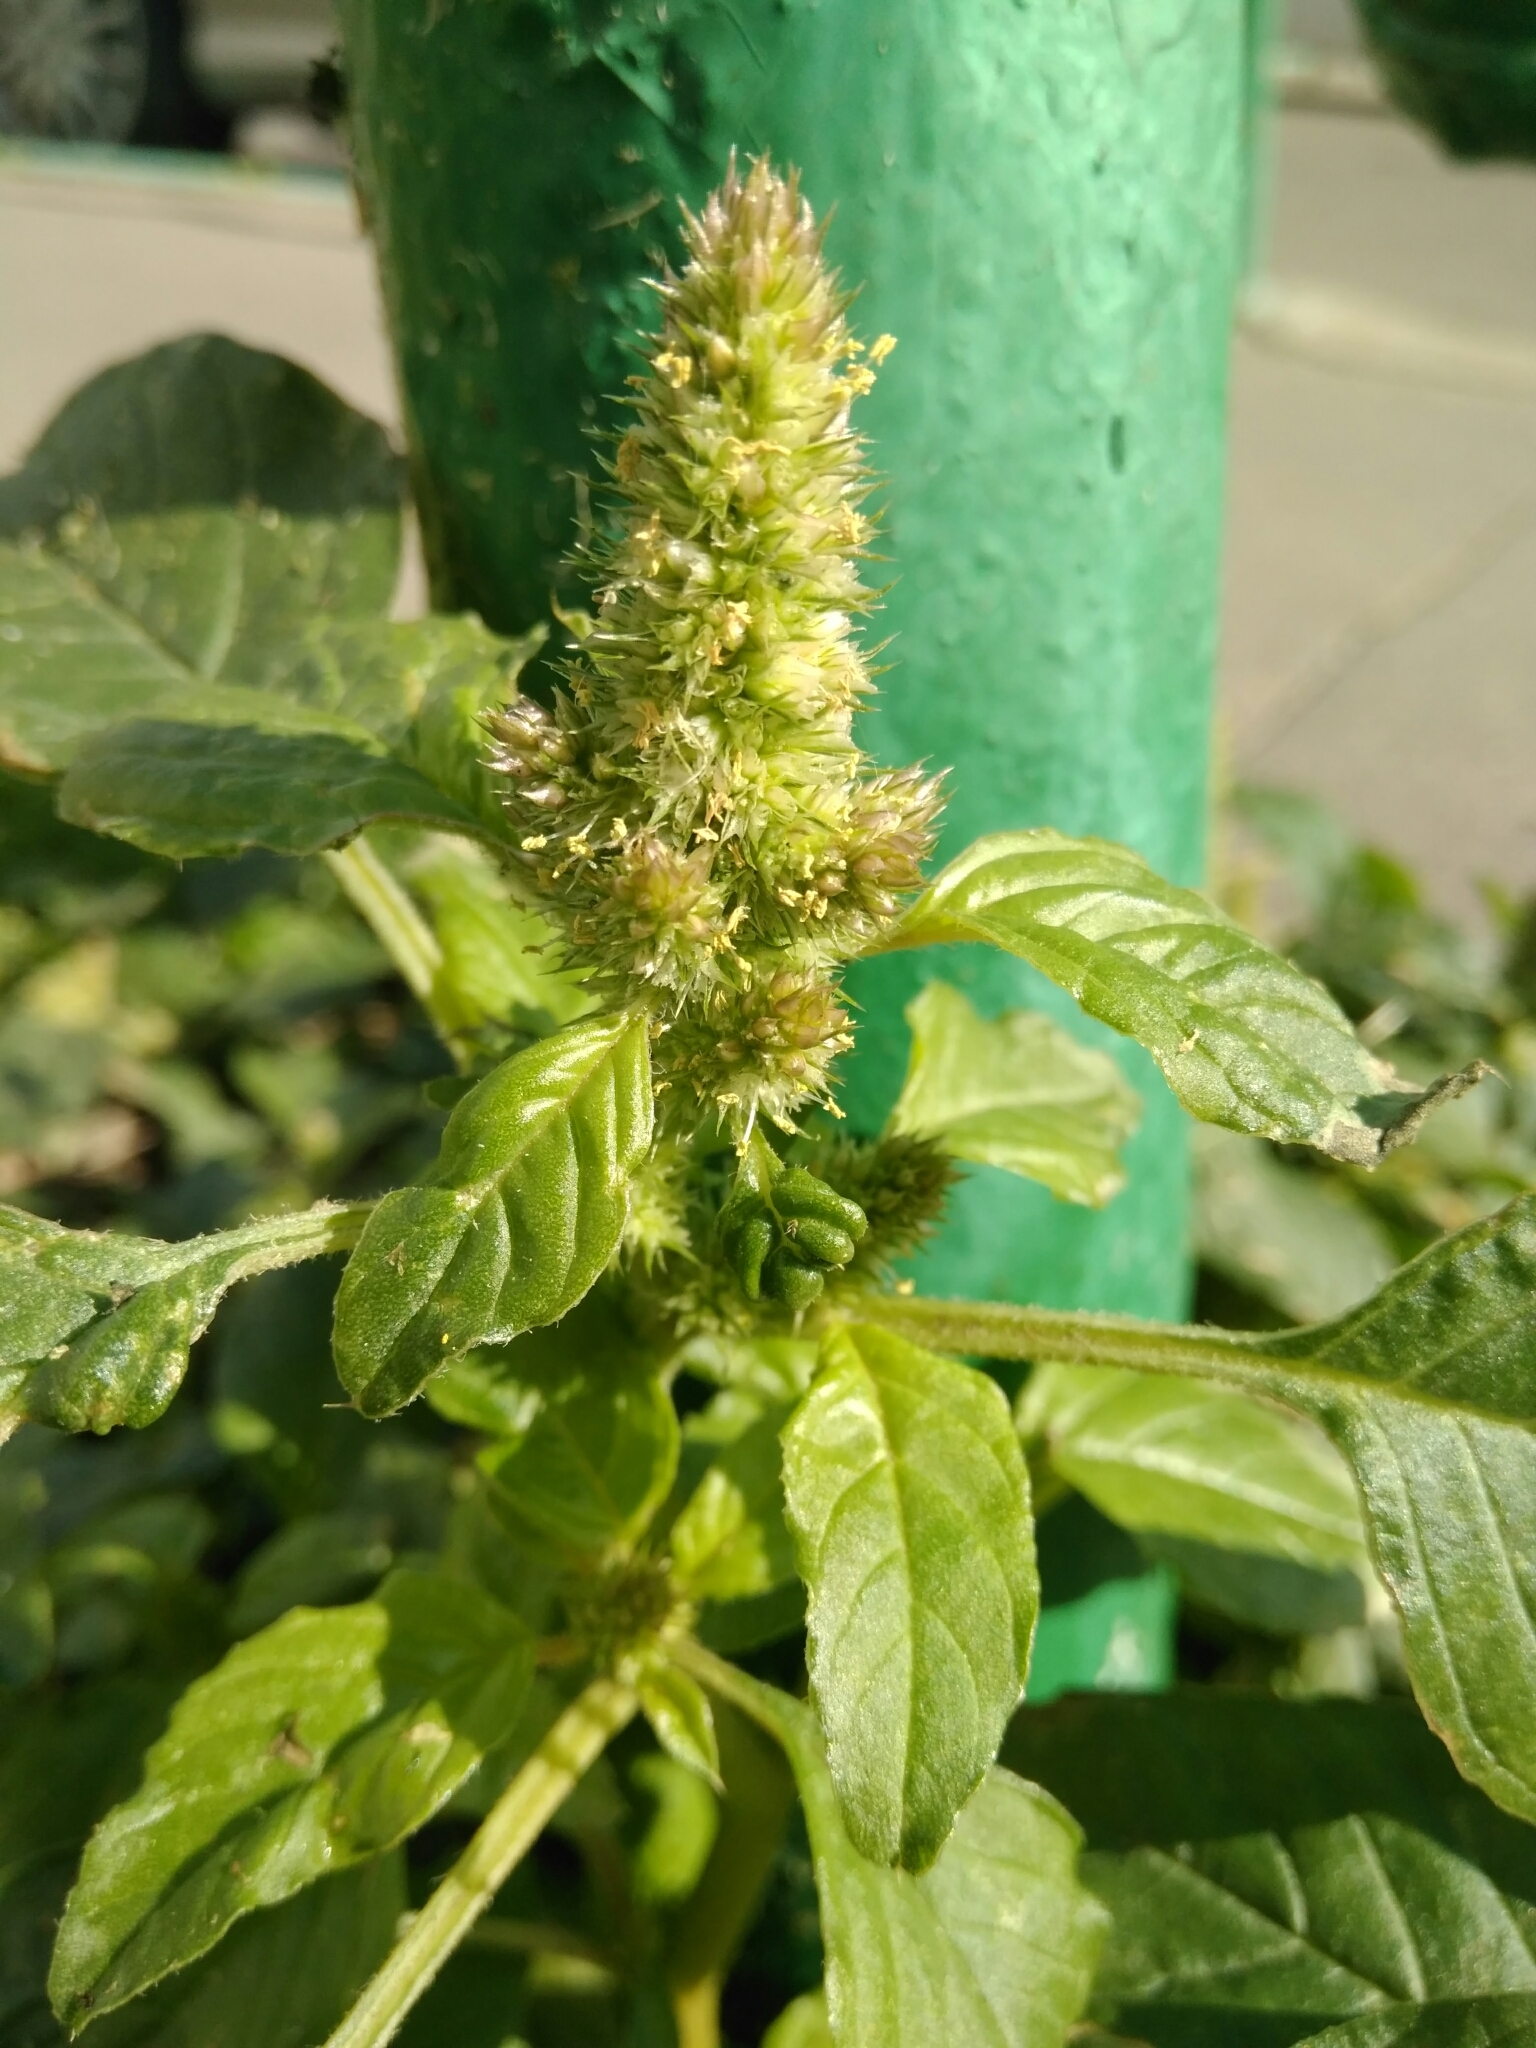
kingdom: Plantae
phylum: Tracheophyta
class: Magnoliopsida
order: Caryophyllales
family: Amaranthaceae
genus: Amaranthus
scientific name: Amaranthus retroflexus
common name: Redroot amaranth
